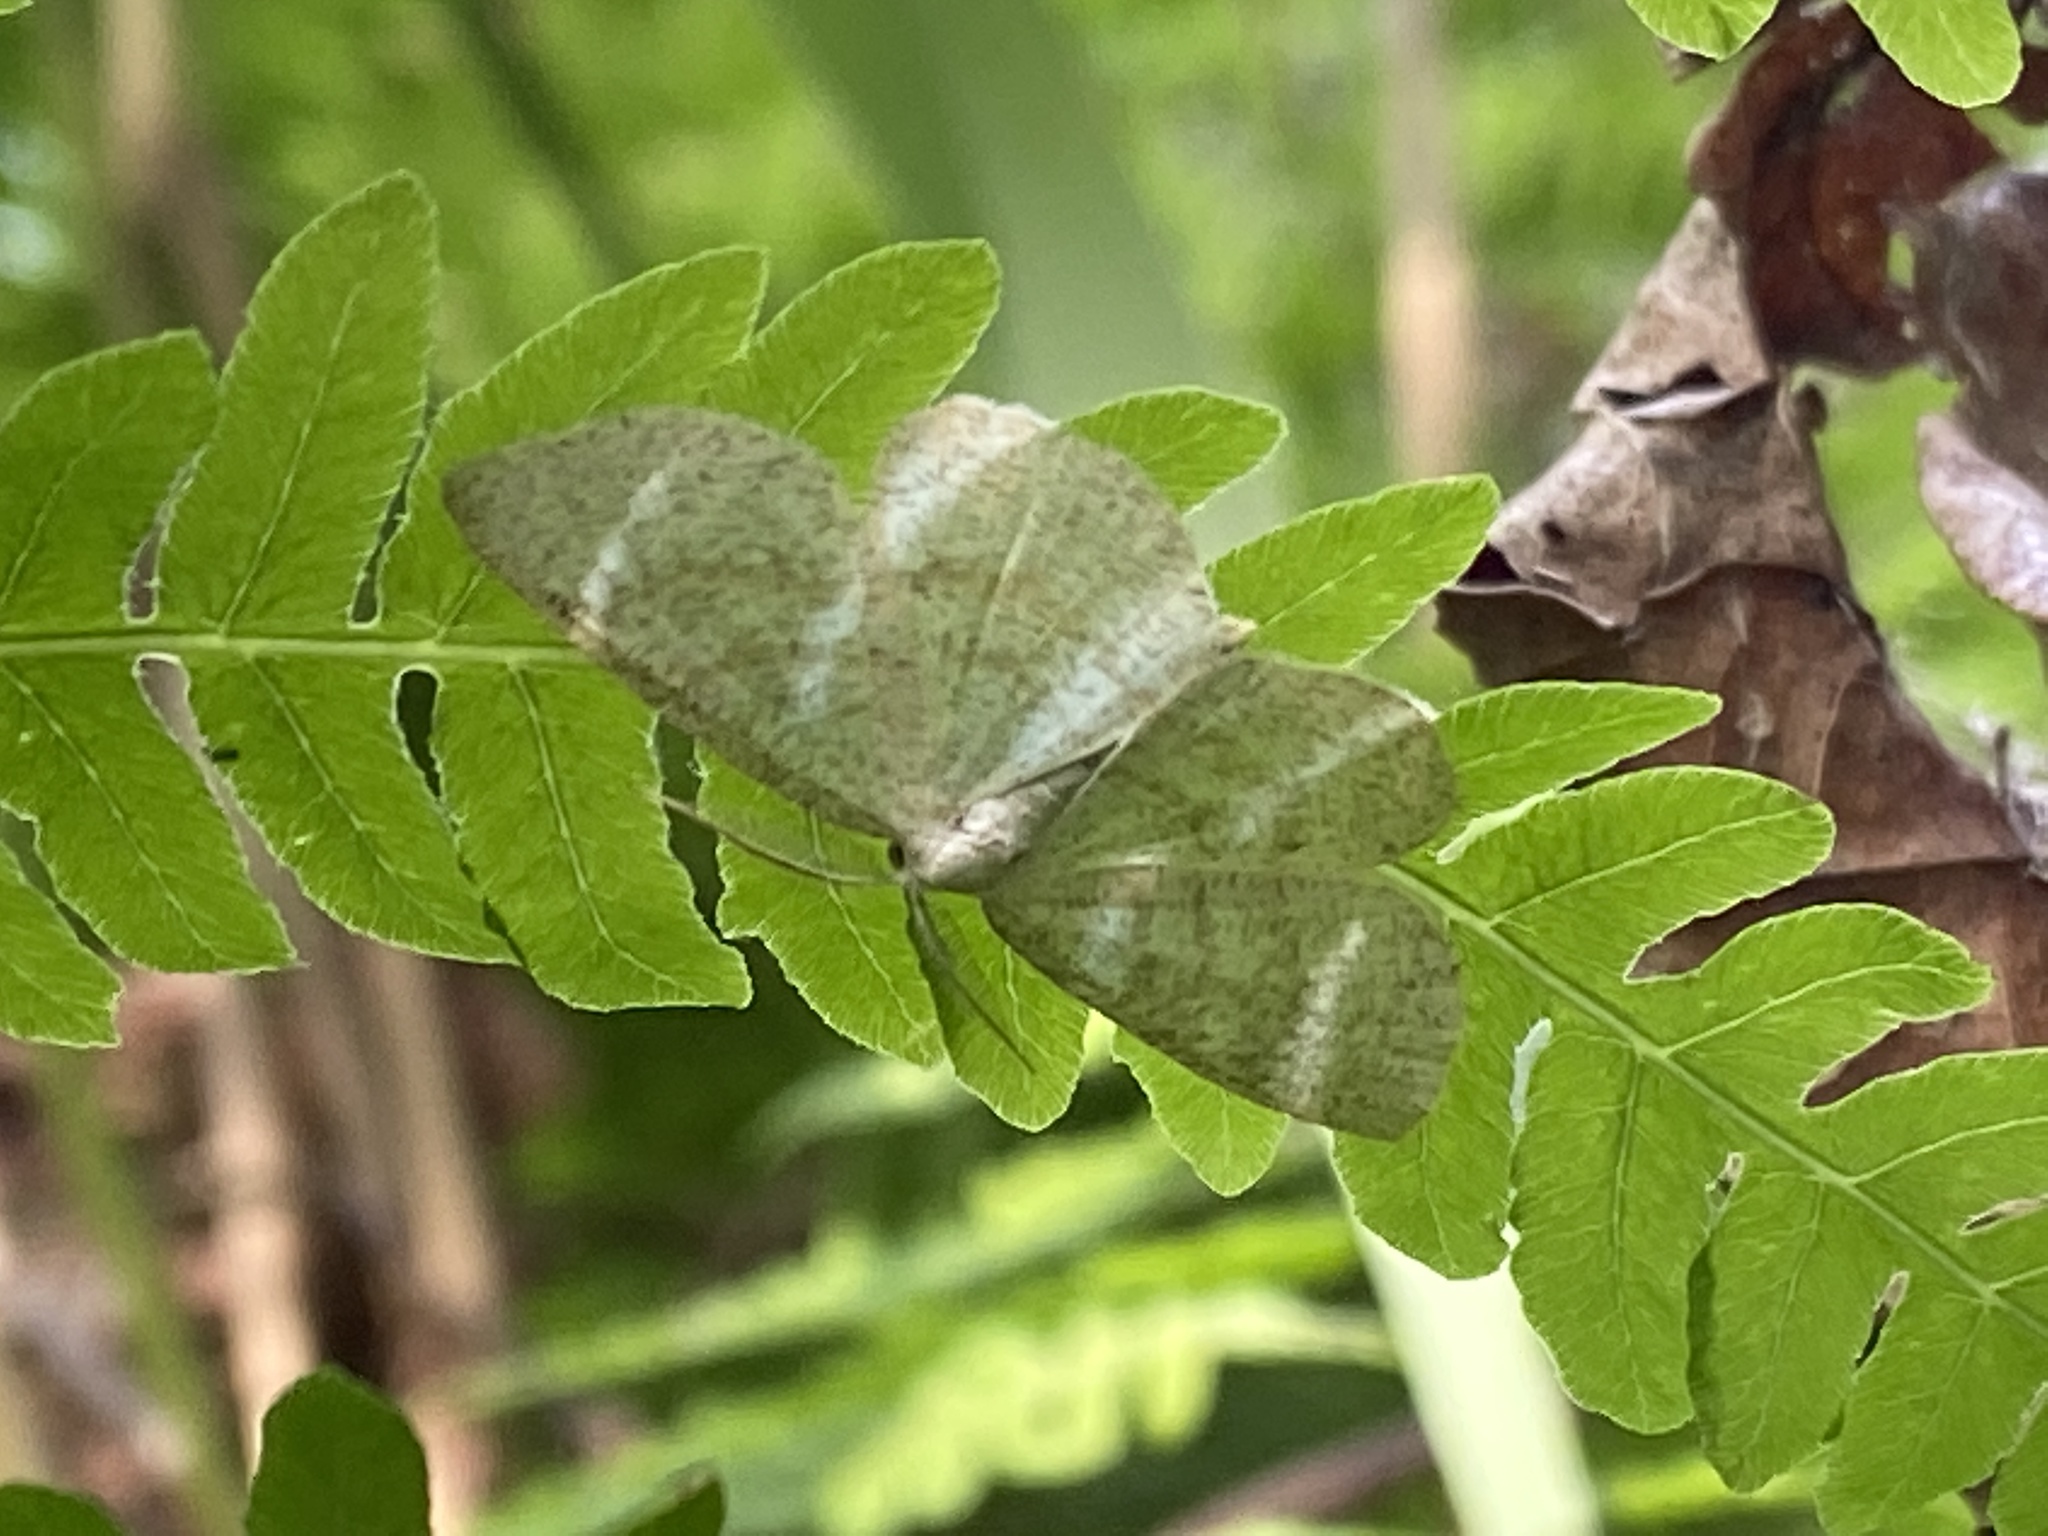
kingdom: Animalia
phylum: Arthropoda
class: Insecta
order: Lepidoptera
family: Geometridae
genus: Cabera
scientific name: Cabera exanthemata
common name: Common wave
